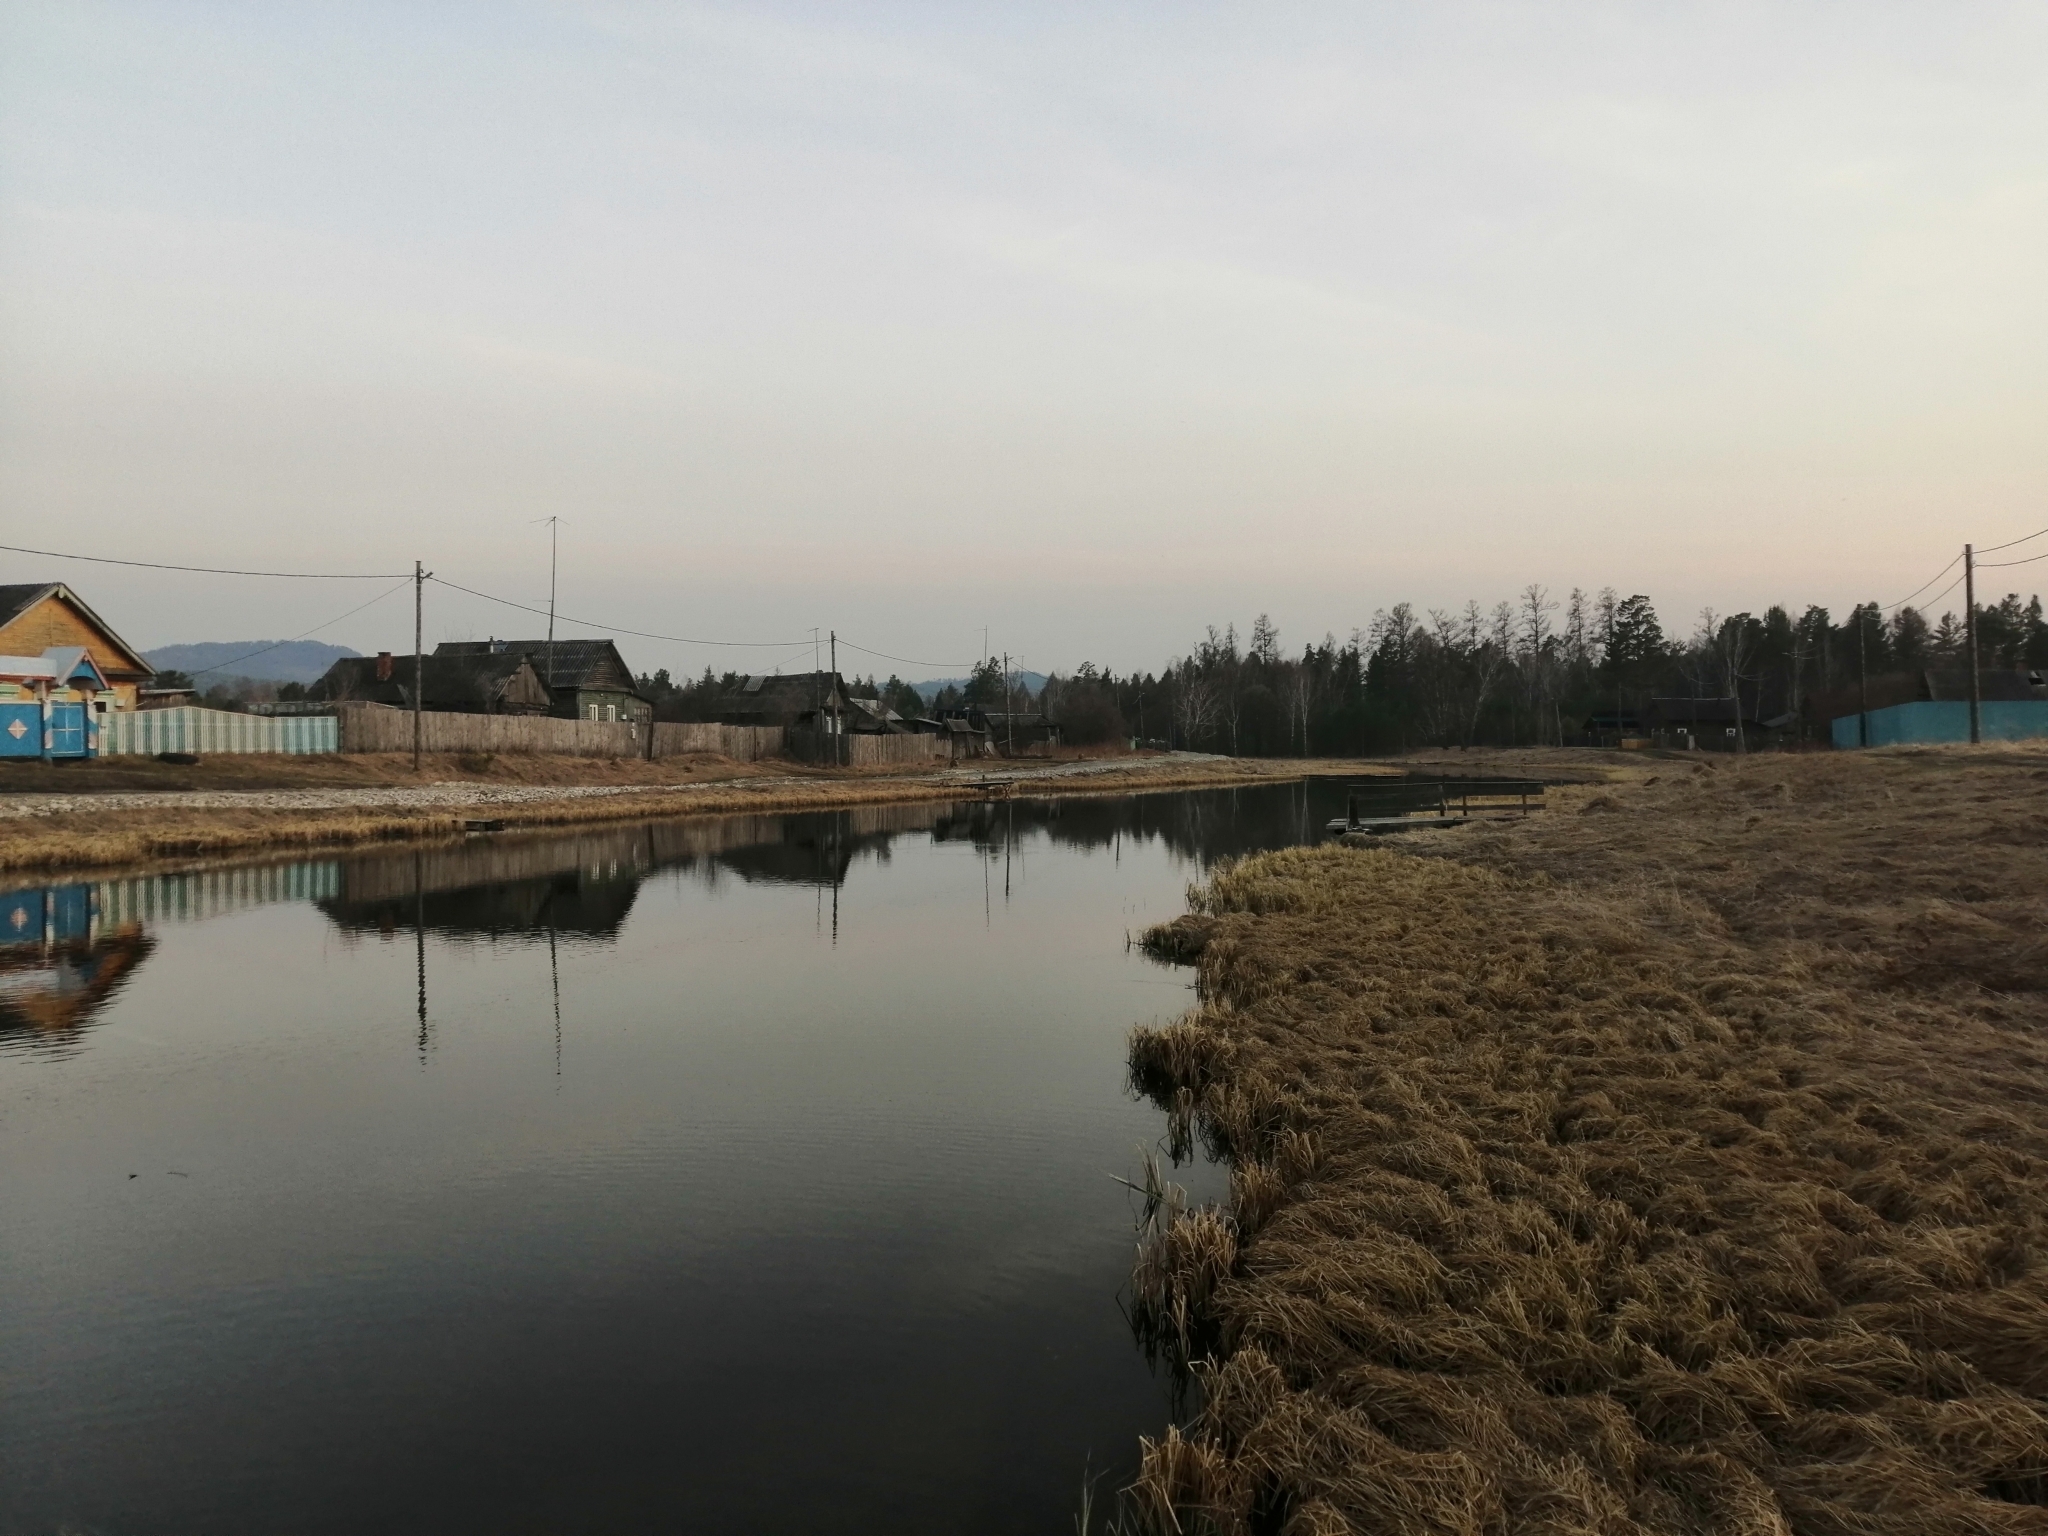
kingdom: Plantae
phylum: Tracheophyta
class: Pinopsida
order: Pinales
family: Pinaceae
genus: Larix
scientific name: Larix sibirica
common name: Siberian larch
